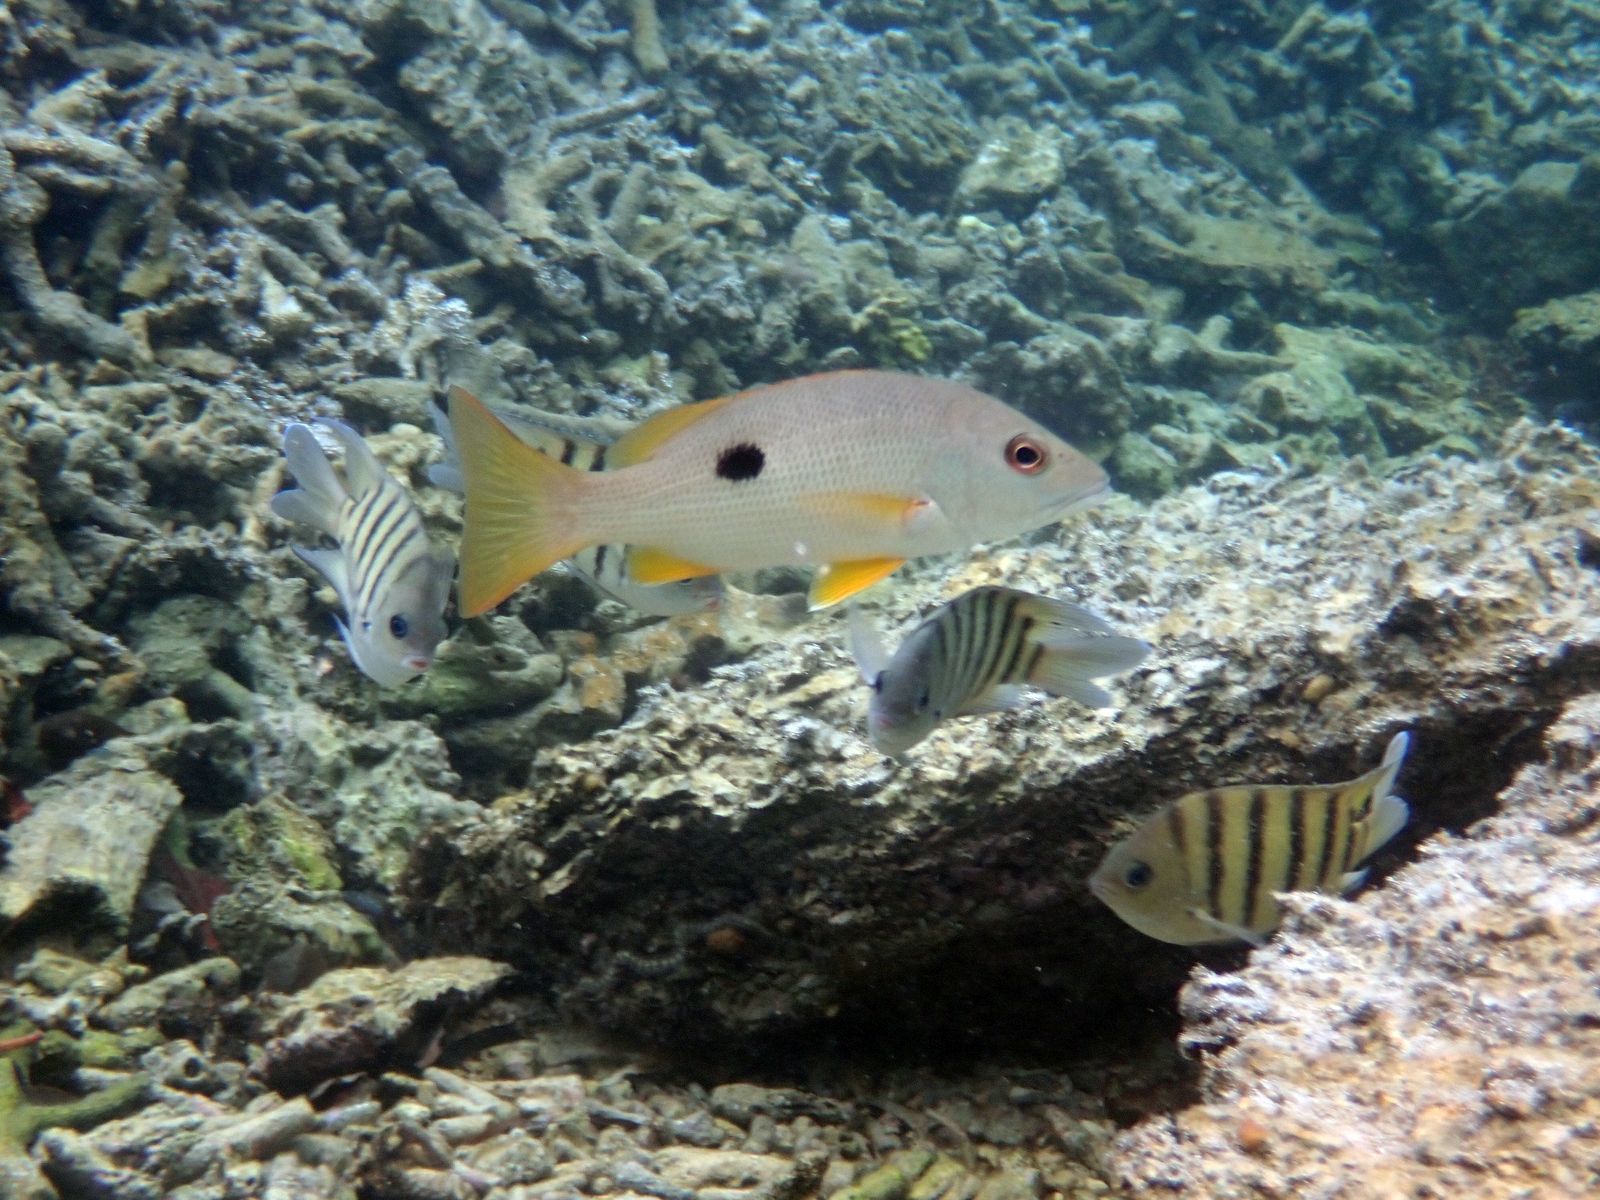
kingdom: Animalia
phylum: Chordata
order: Perciformes
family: Lutjanidae
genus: Lutjanus
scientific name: Lutjanus monostigma
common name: Onespot snapper
